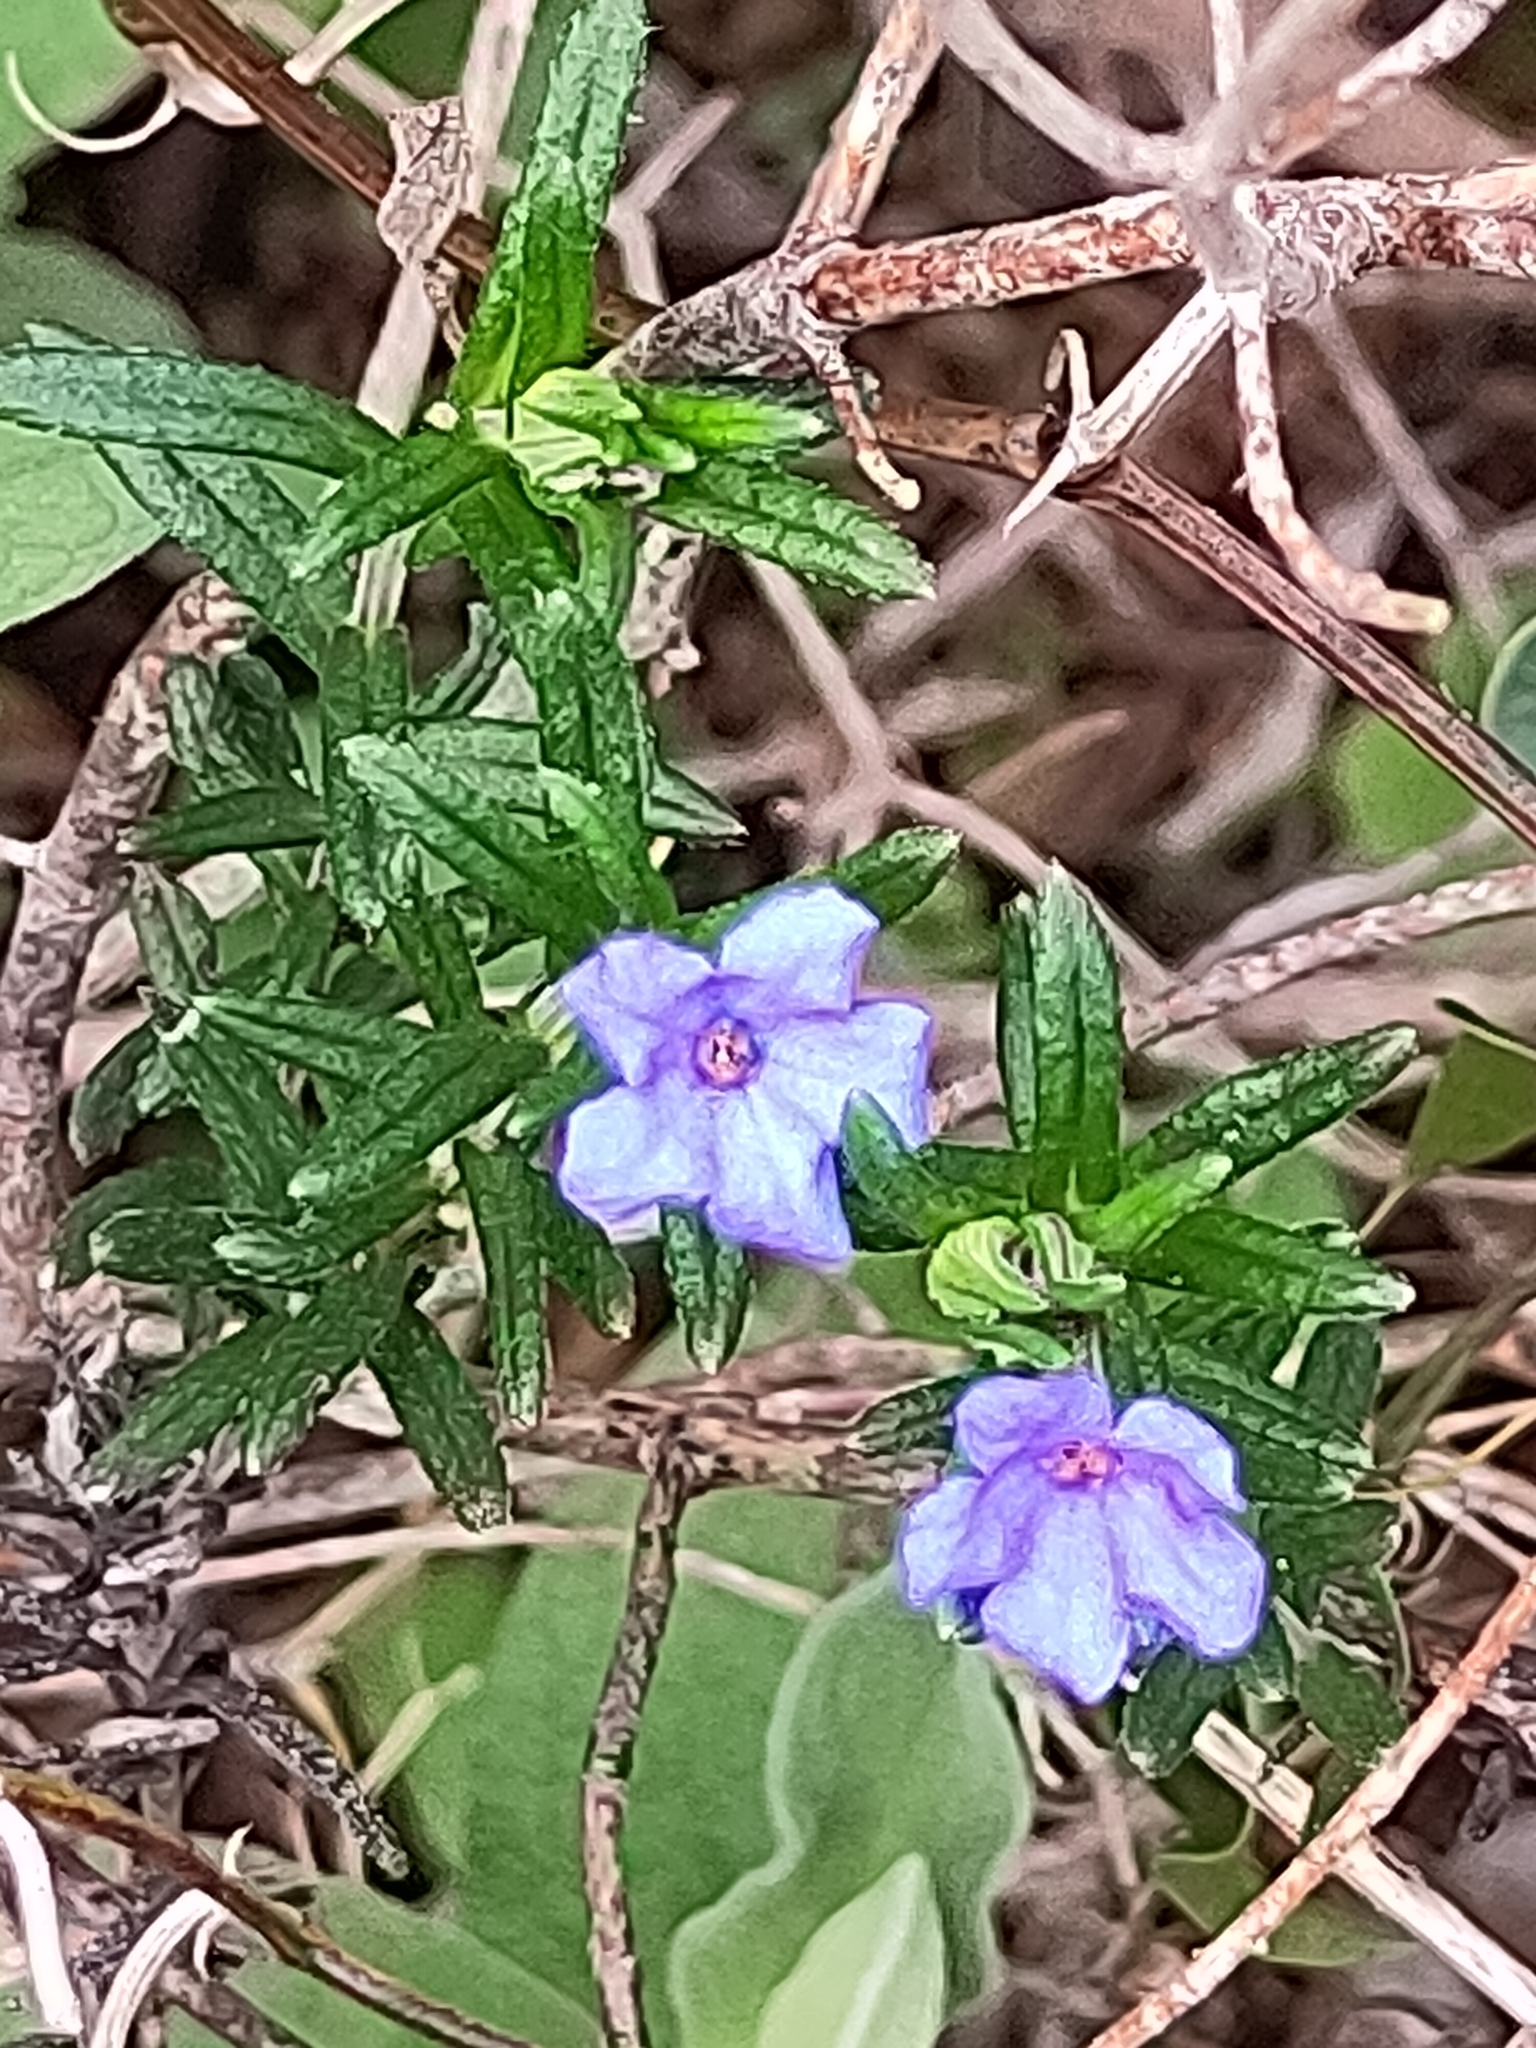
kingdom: Plantae
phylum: Tracheophyta
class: Magnoliopsida
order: Boraginales
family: Boraginaceae
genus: Glandora
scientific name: Glandora prostrata
